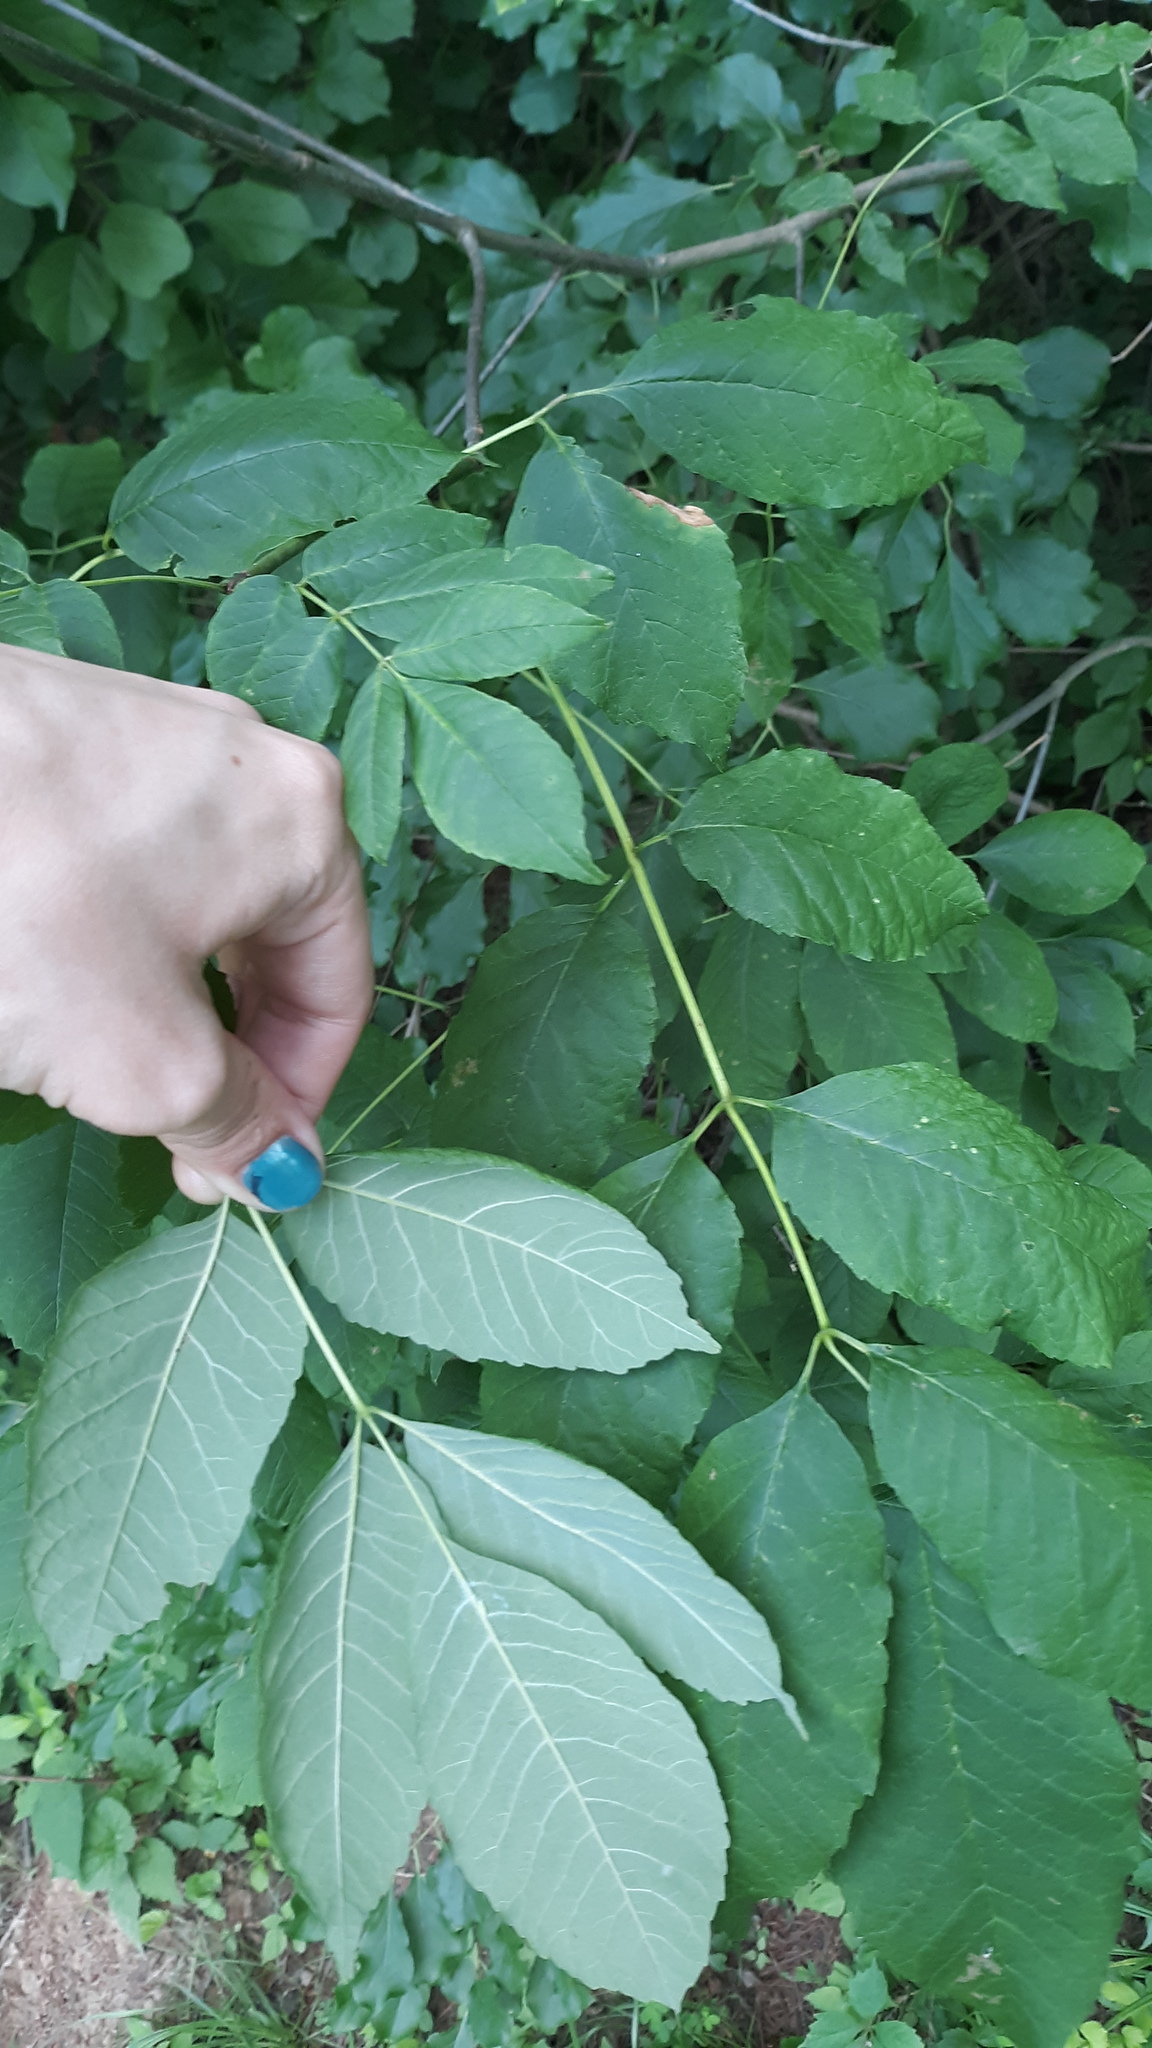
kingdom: Plantae
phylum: Tracheophyta
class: Magnoliopsida
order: Lamiales
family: Oleaceae
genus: Fraxinus
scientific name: Fraxinus americana
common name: White ash
